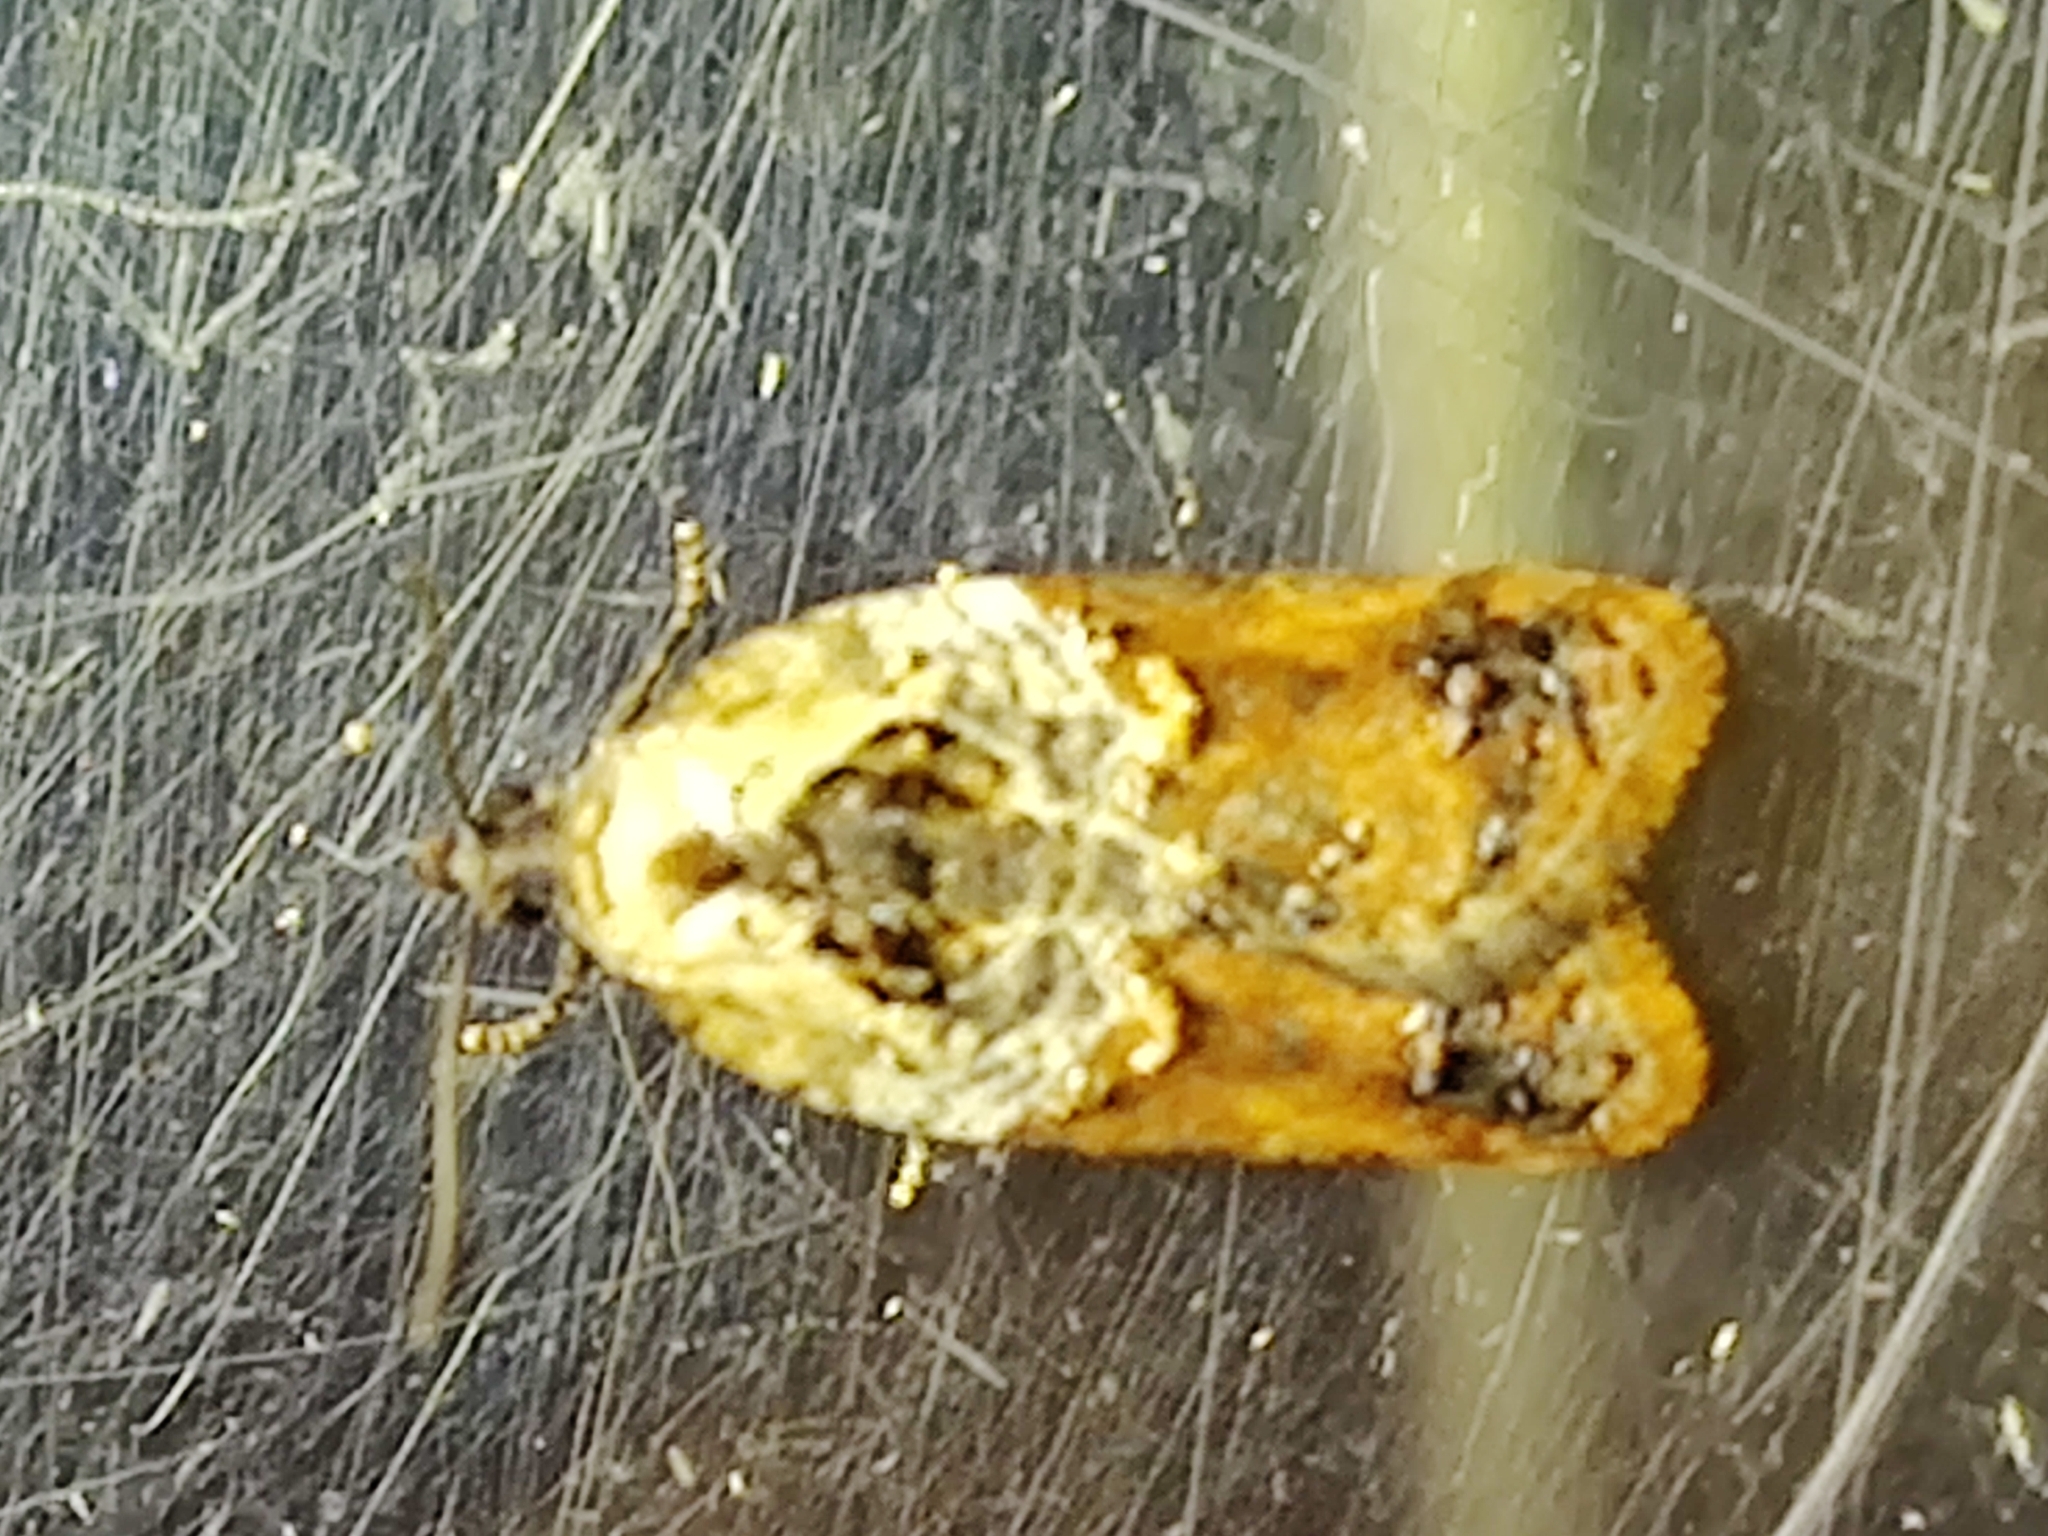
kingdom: Animalia
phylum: Arthropoda
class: Insecta
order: Lepidoptera
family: Tortricidae
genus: Acleris
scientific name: Acleris variegana
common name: Garden rose tortrix
